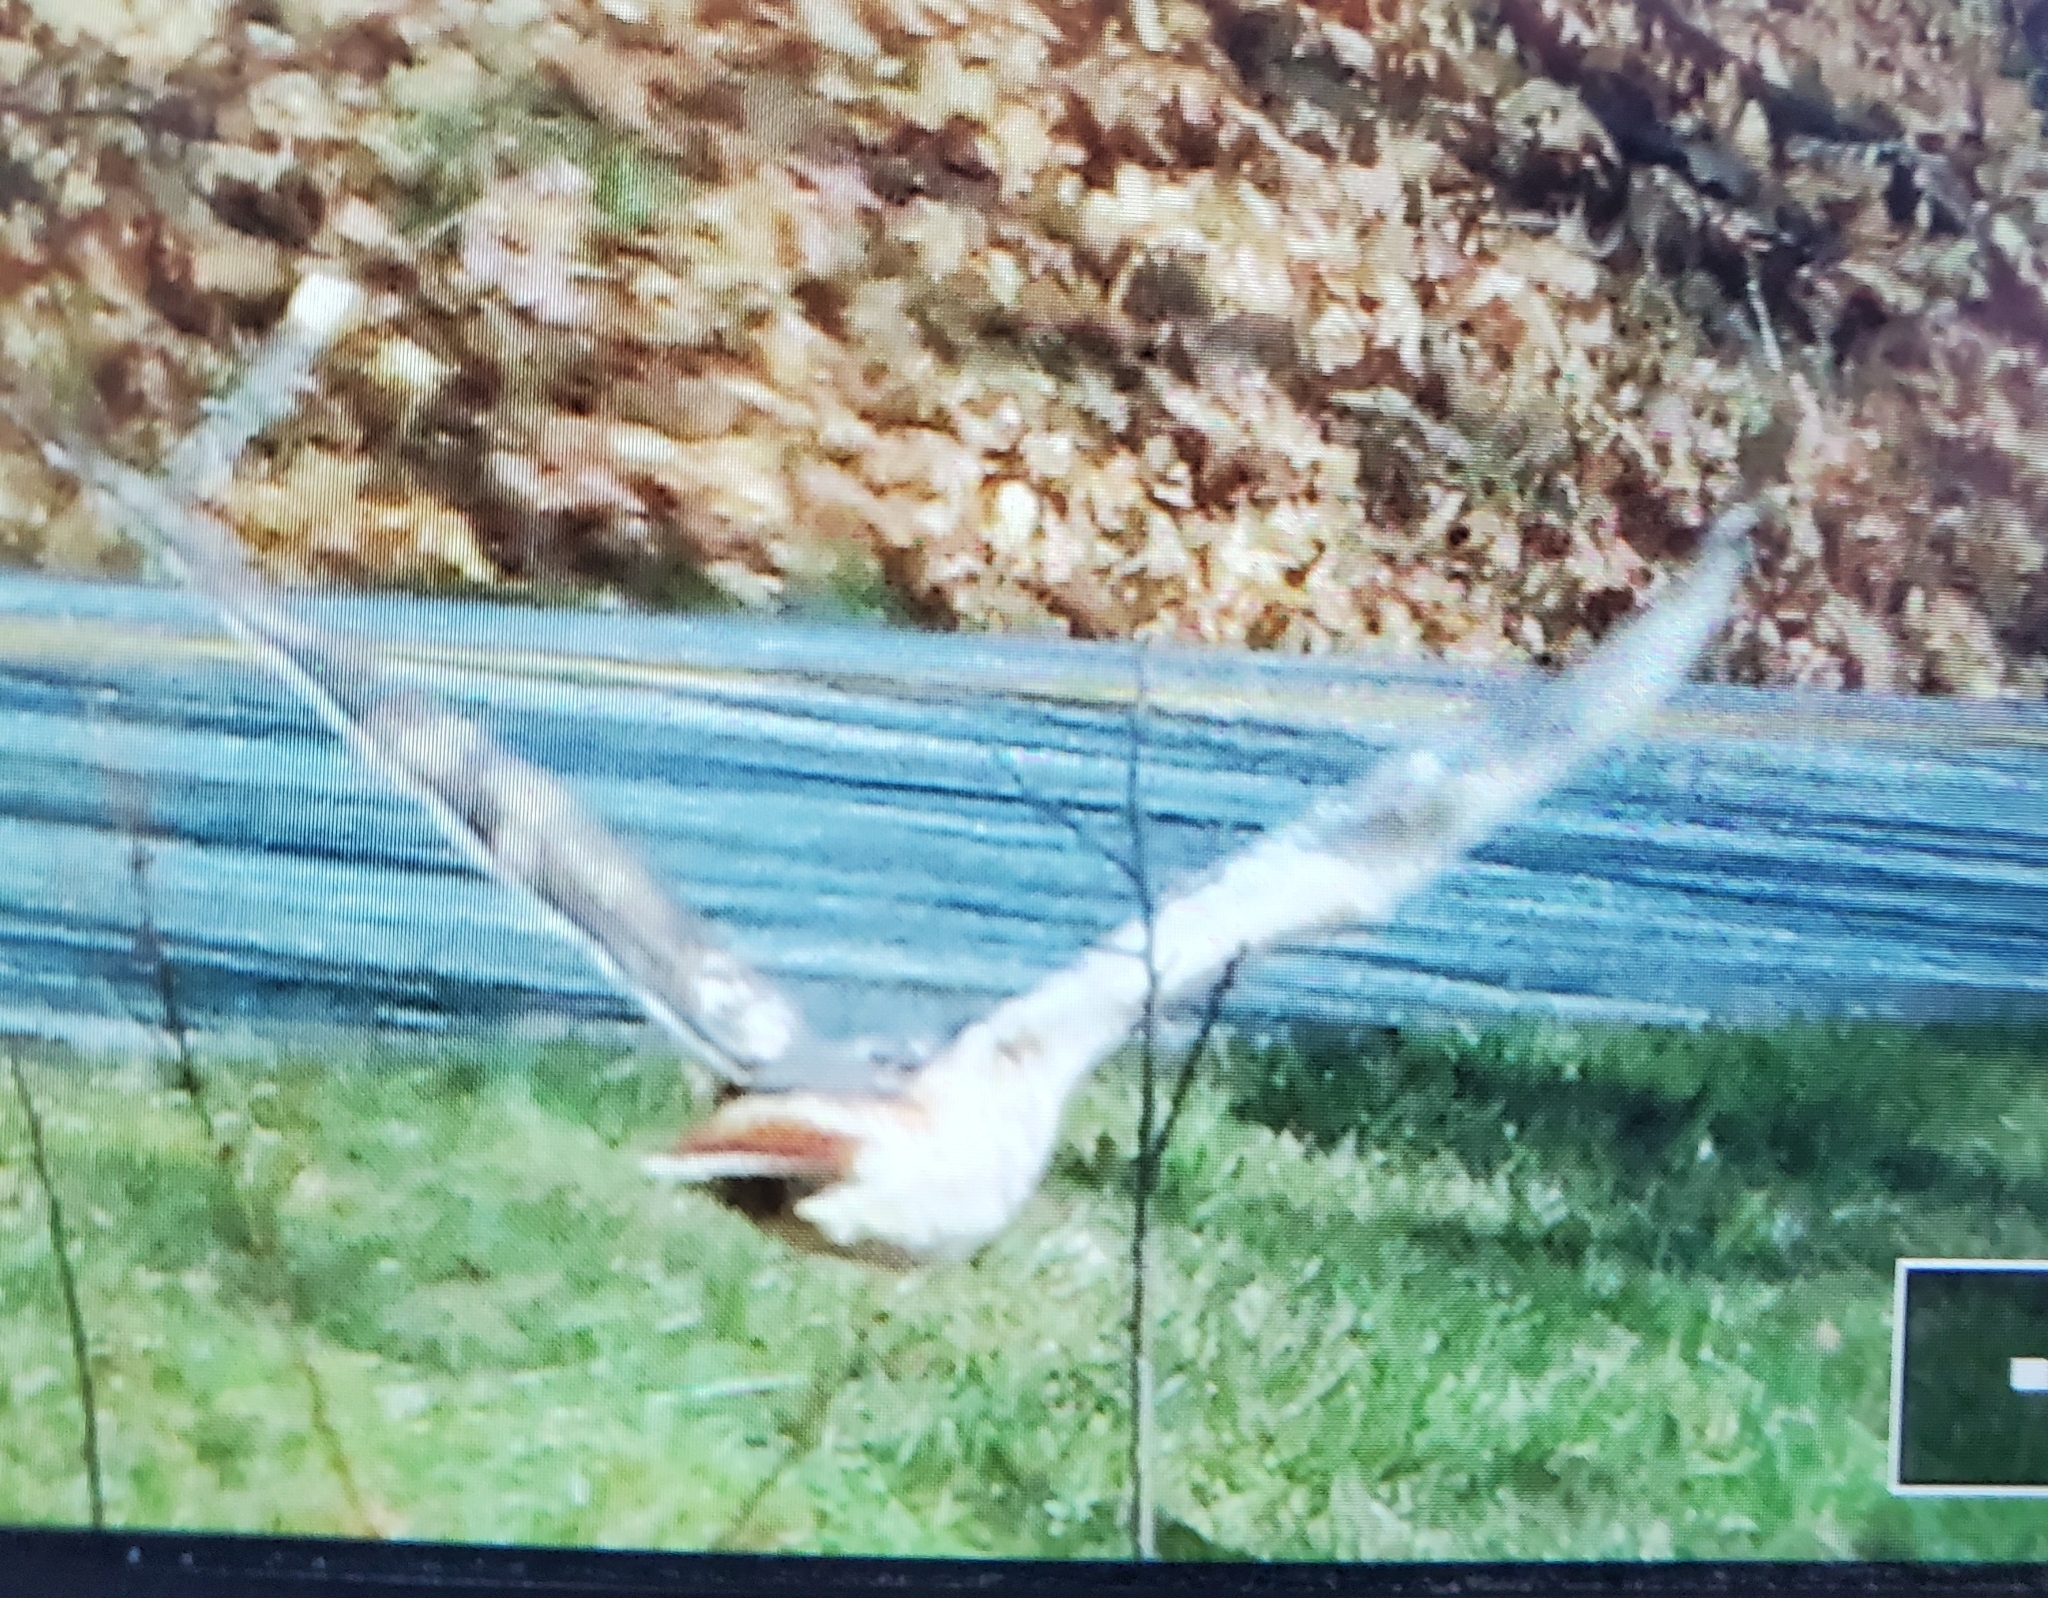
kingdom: Animalia
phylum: Chordata
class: Aves
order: Accipitriformes
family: Accipitridae
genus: Buteo
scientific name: Buteo jamaicensis
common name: Red-tailed hawk
